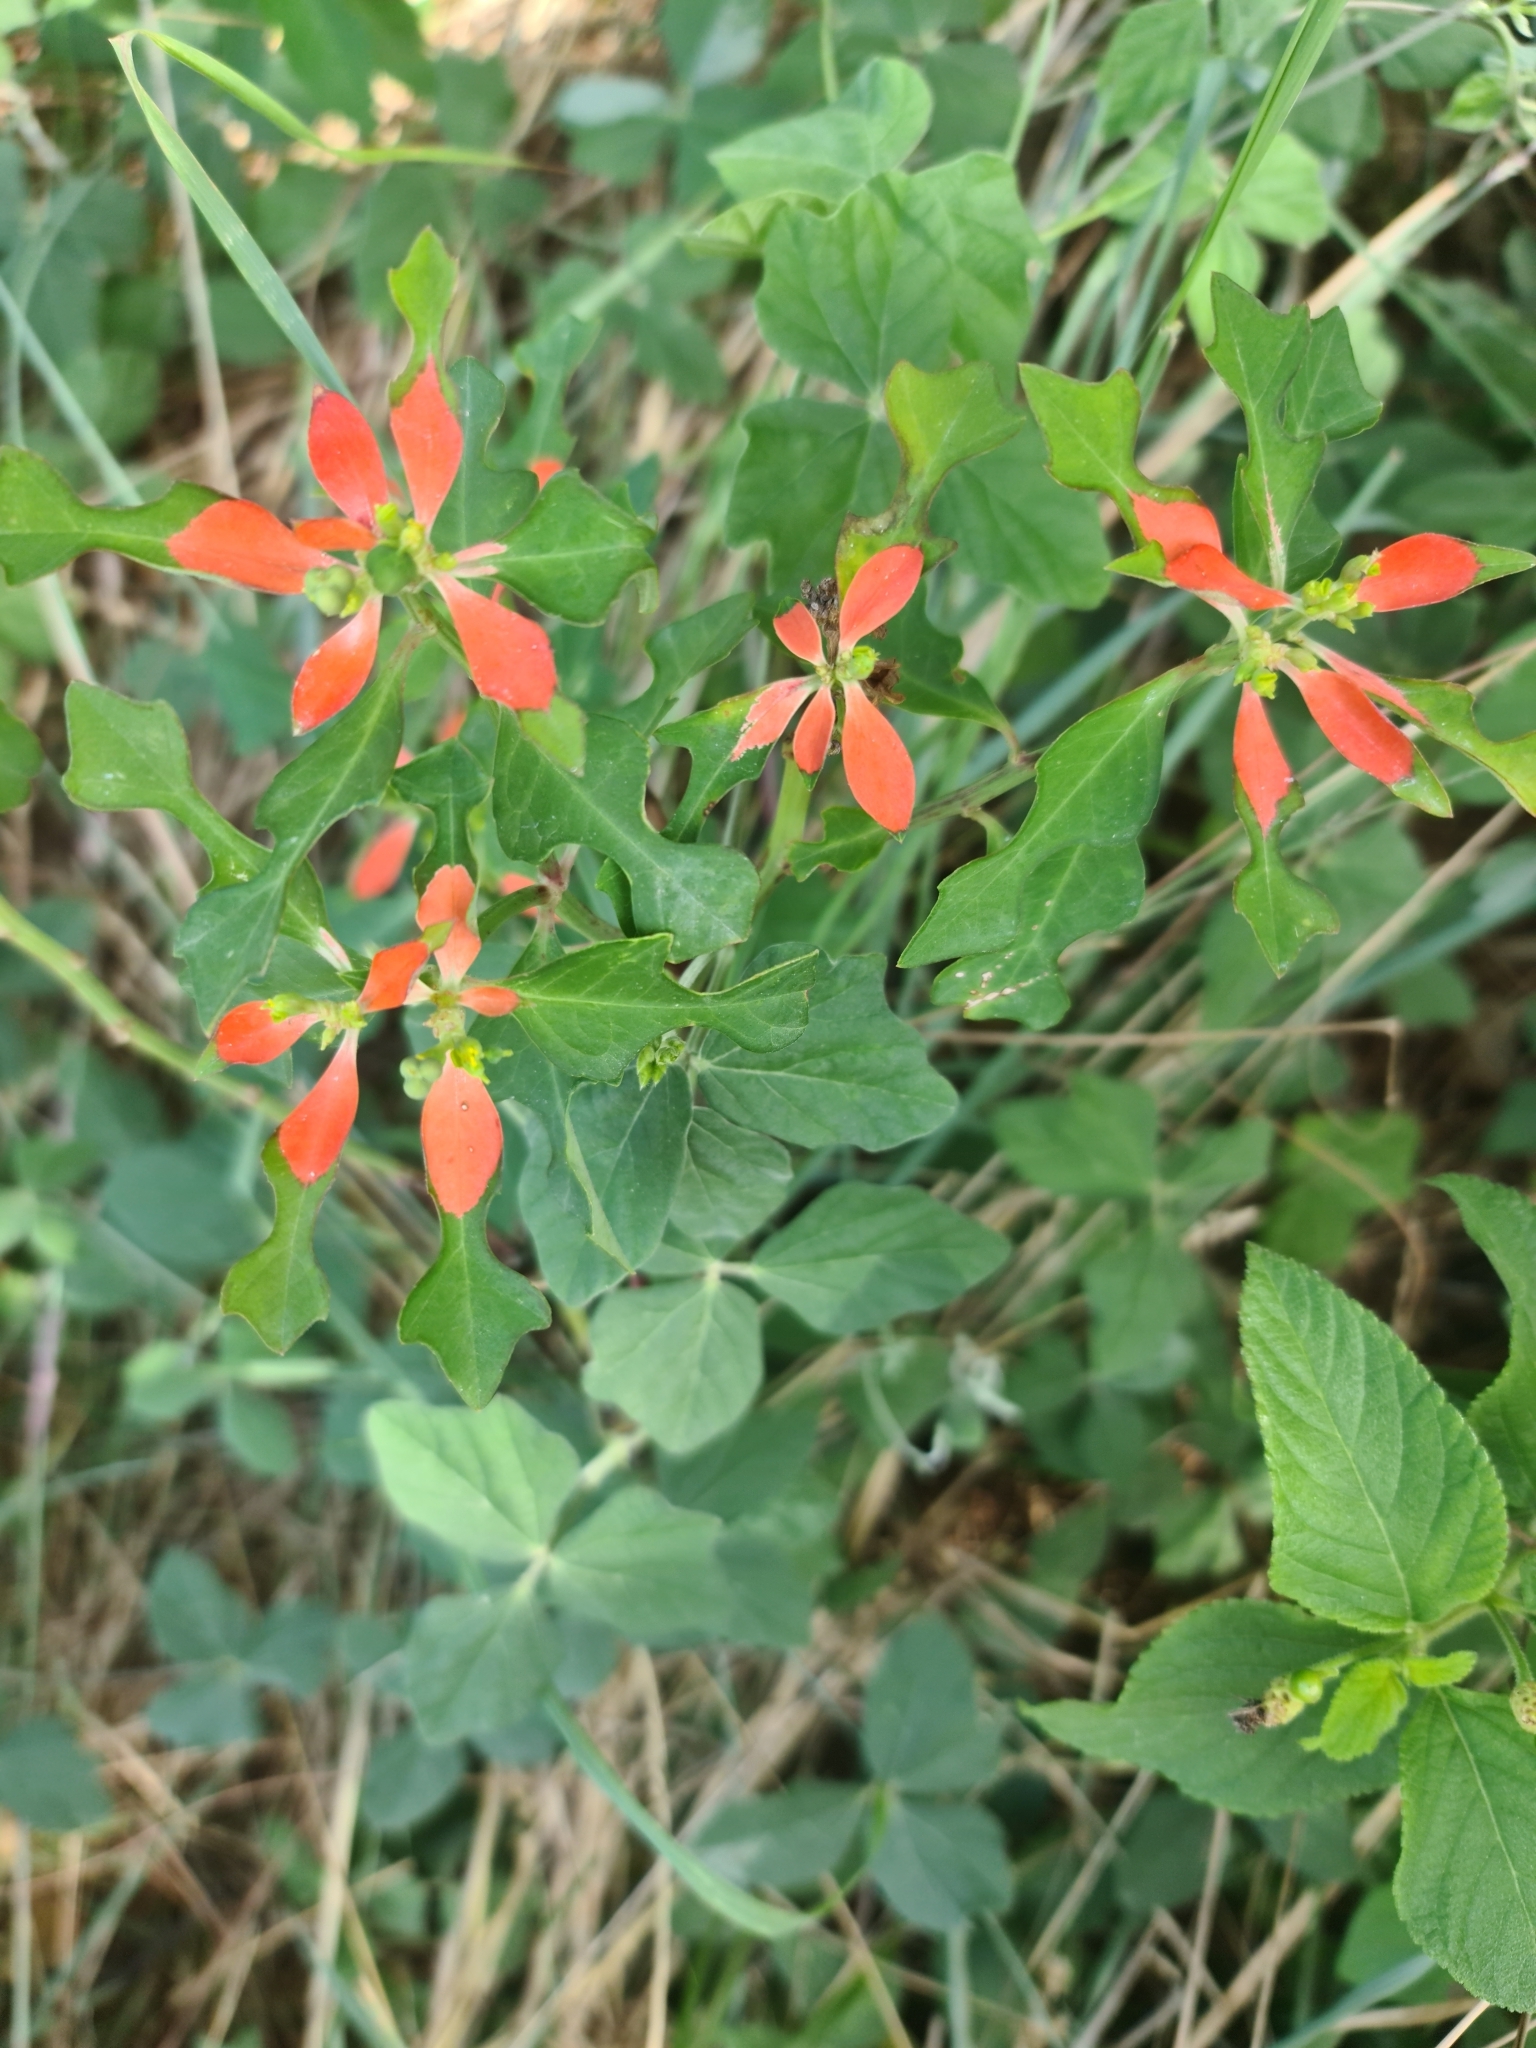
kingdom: Plantae
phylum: Tracheophyta
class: Magnoliopsida
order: Malpighiales
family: Euphorbiaceae
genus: Euphorbia
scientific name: Euphorbia heterophylla
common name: Mexican fireplant
